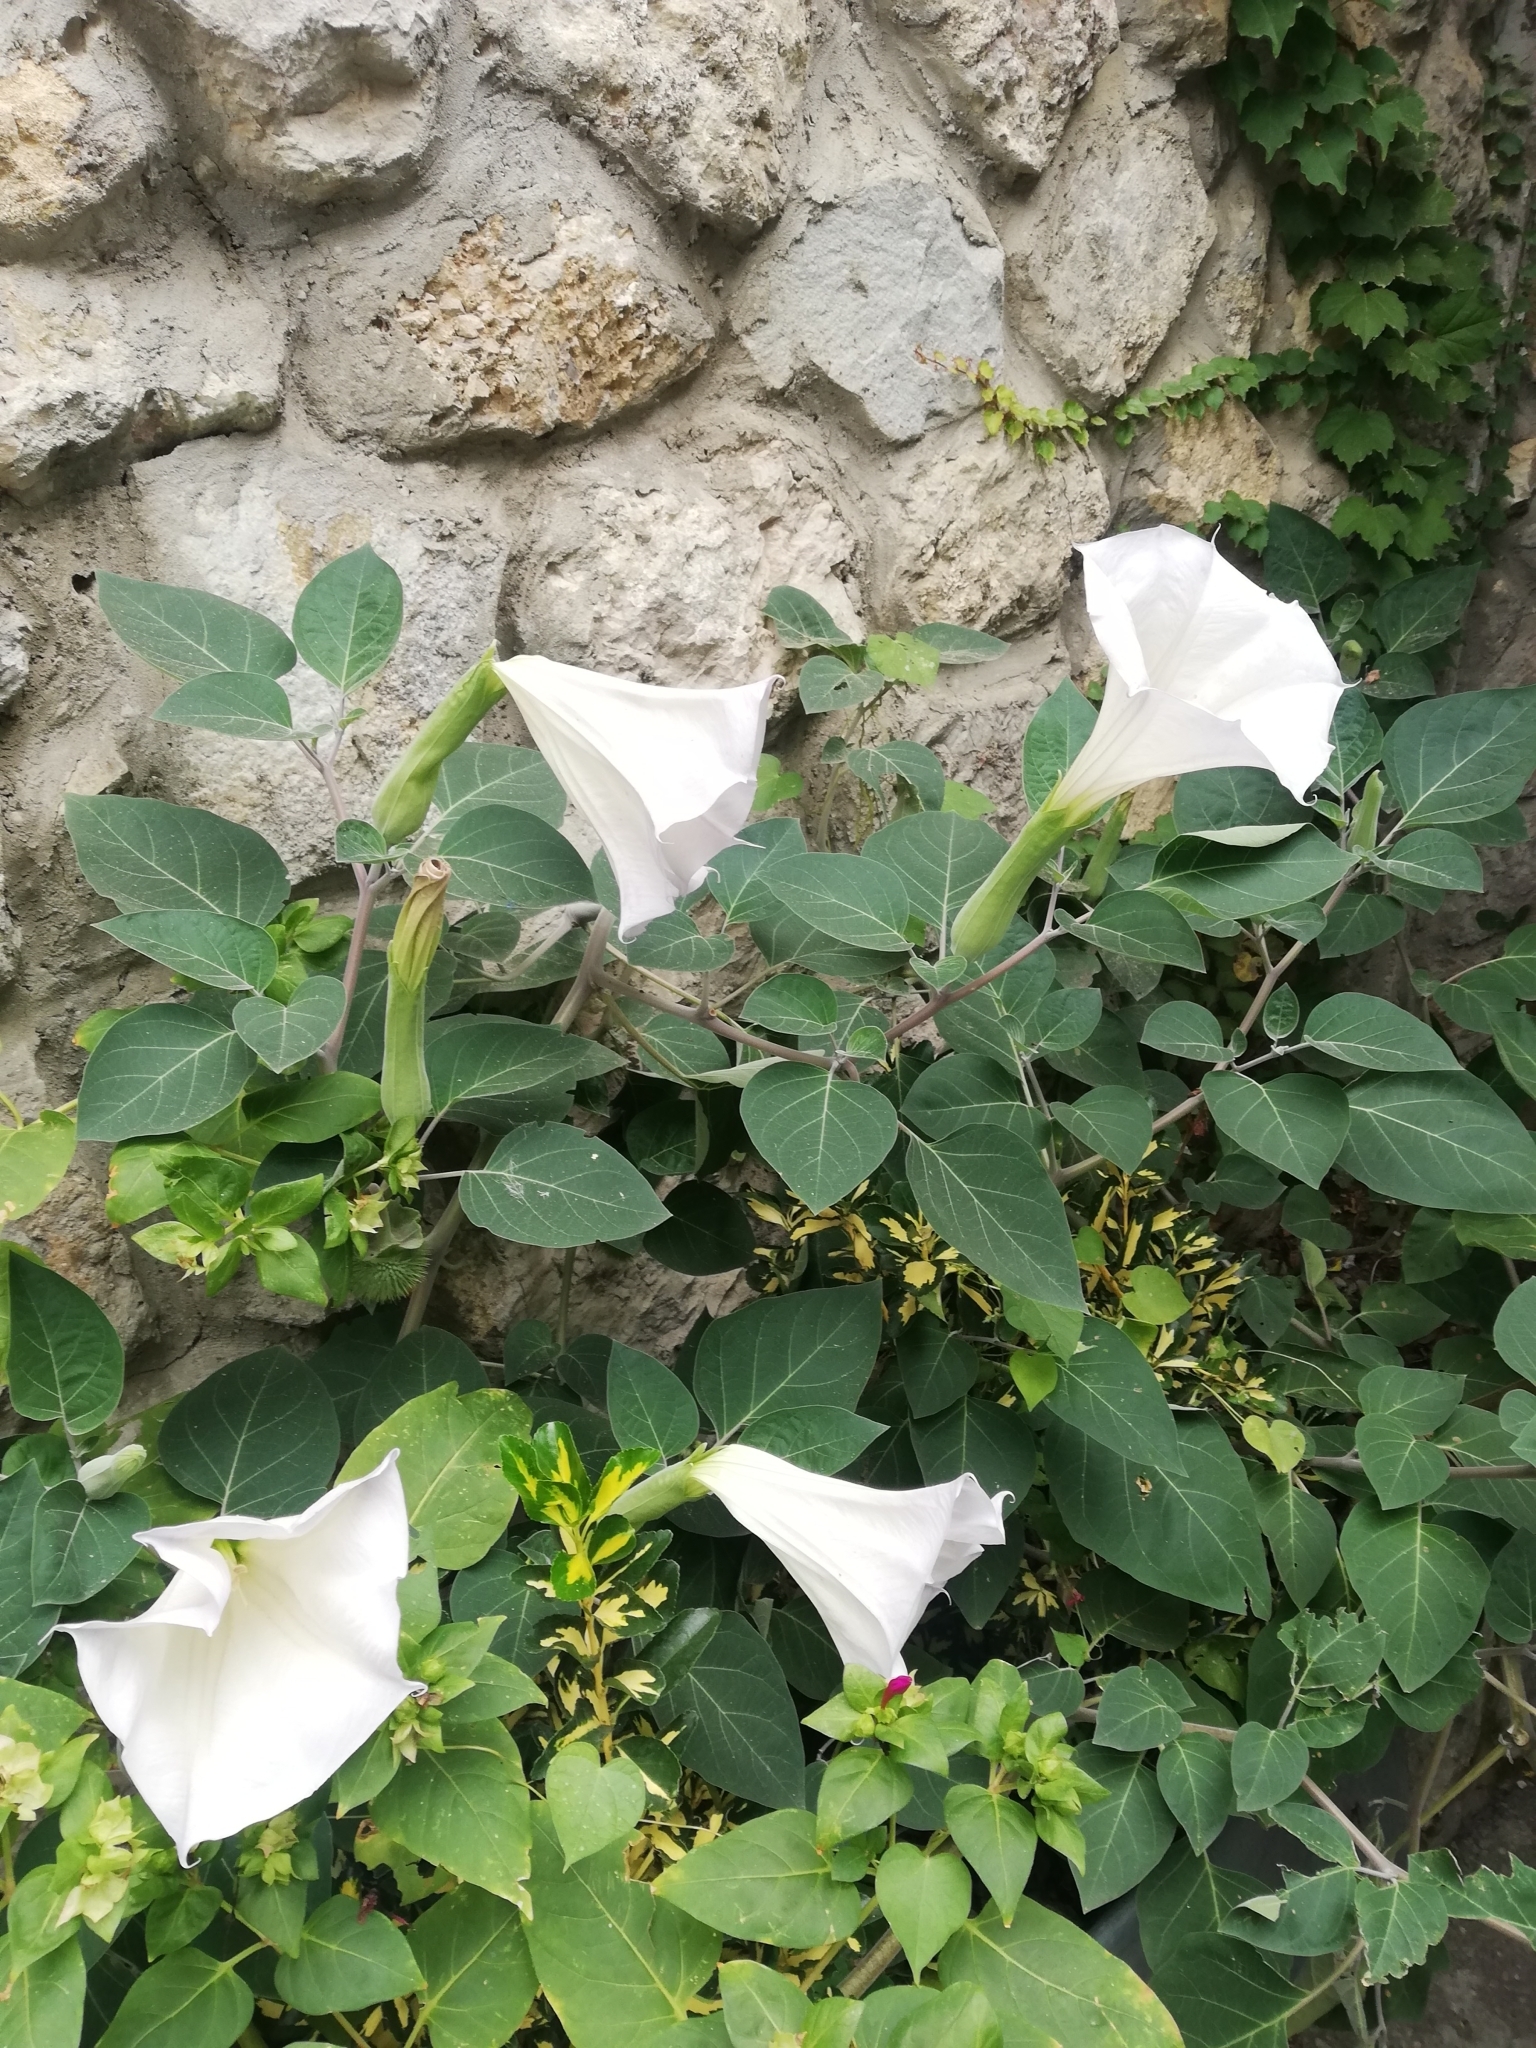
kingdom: Plantae
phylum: Tracheophyta
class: Magnoliopsida
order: Solanales
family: Solanaceae
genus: Datura
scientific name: Datura innoxia
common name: Downy thorn-apple
